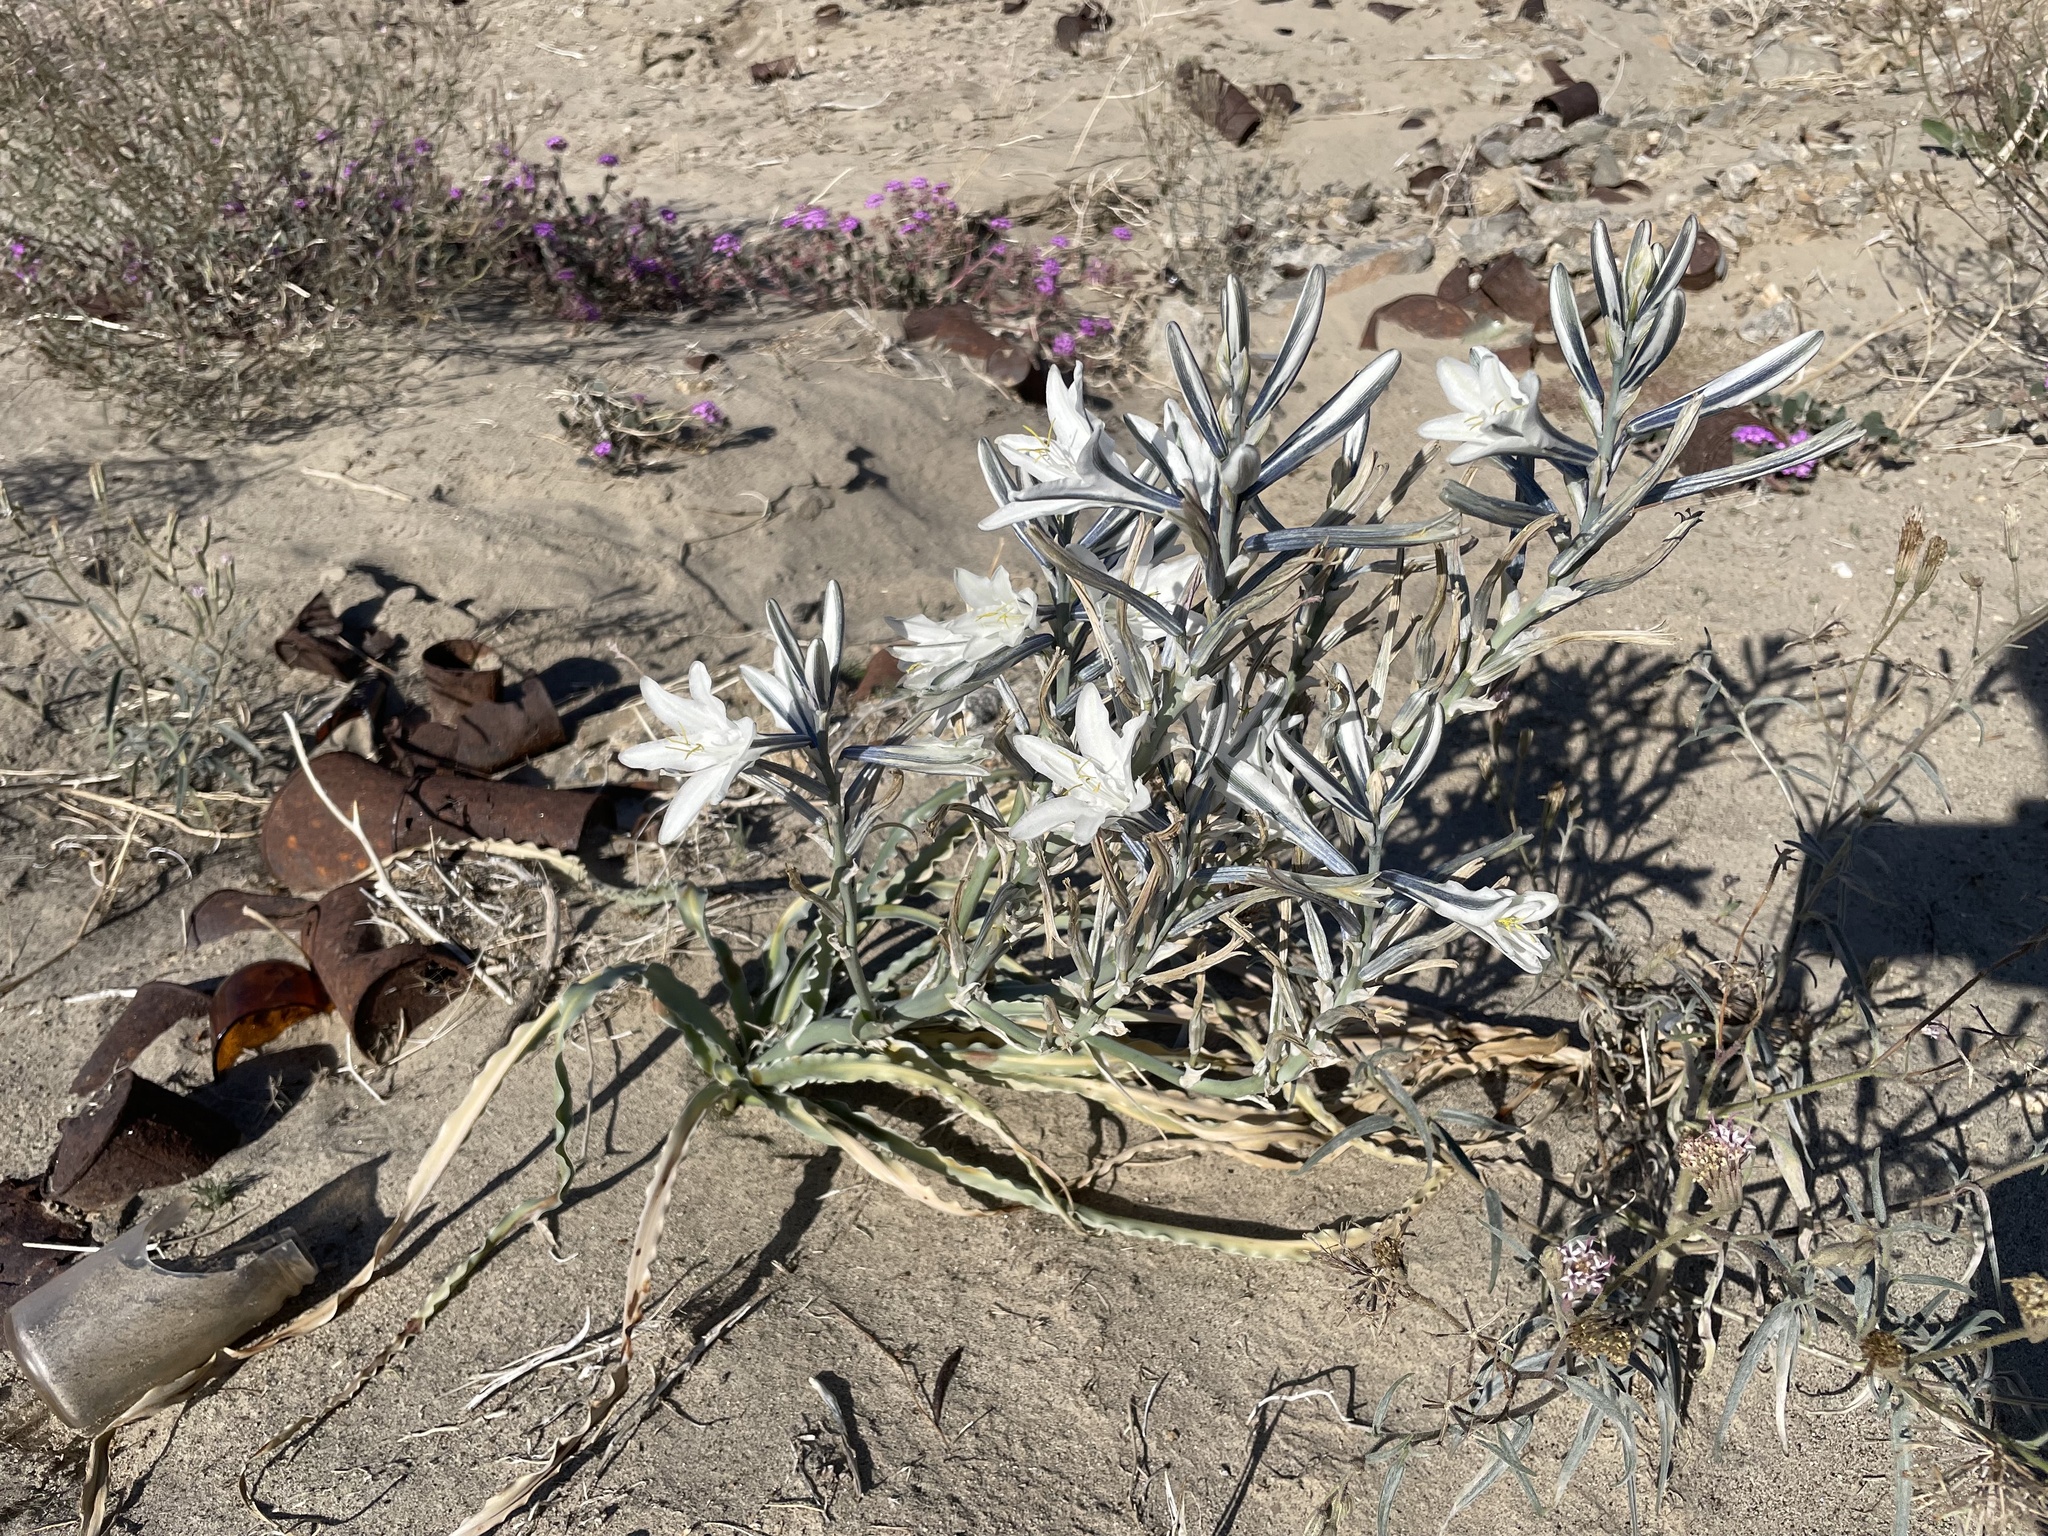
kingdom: Plantae
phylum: Tracheophyta
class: Liliopsida
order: Asparagales
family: Asparagaceae
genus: Hesperocallis
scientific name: Hesperocallis undulata
